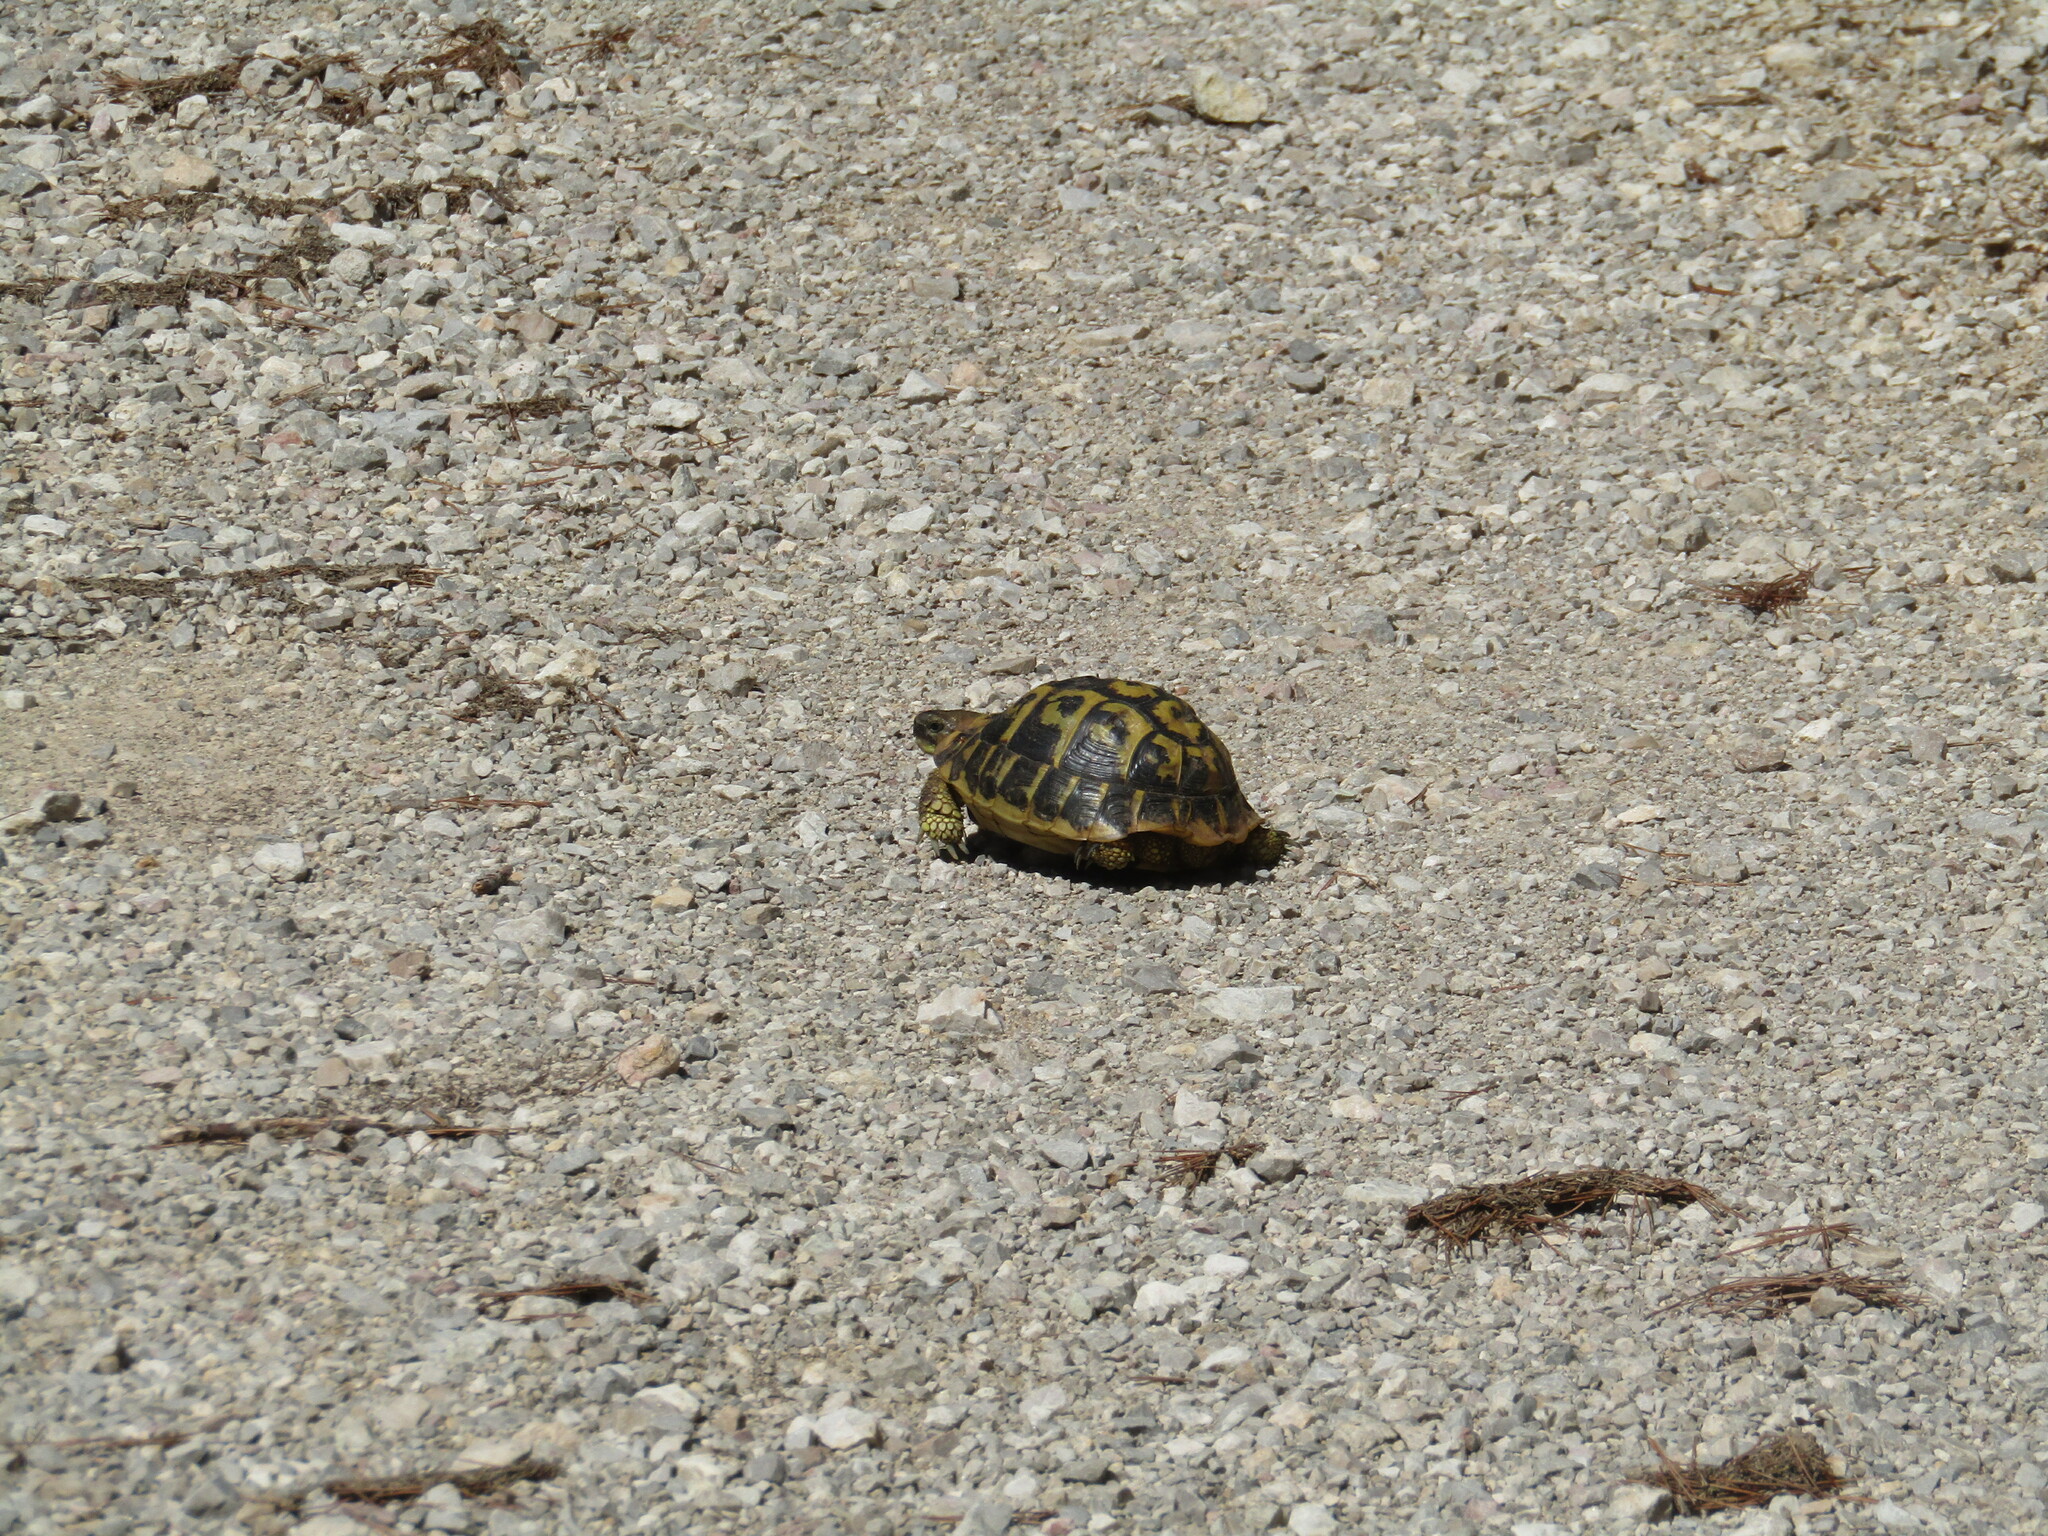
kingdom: Animalia
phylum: Chordata
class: Testudines
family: Testudinidae
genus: Testudo
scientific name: Testudo hermanni
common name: Hermann's tortoise
